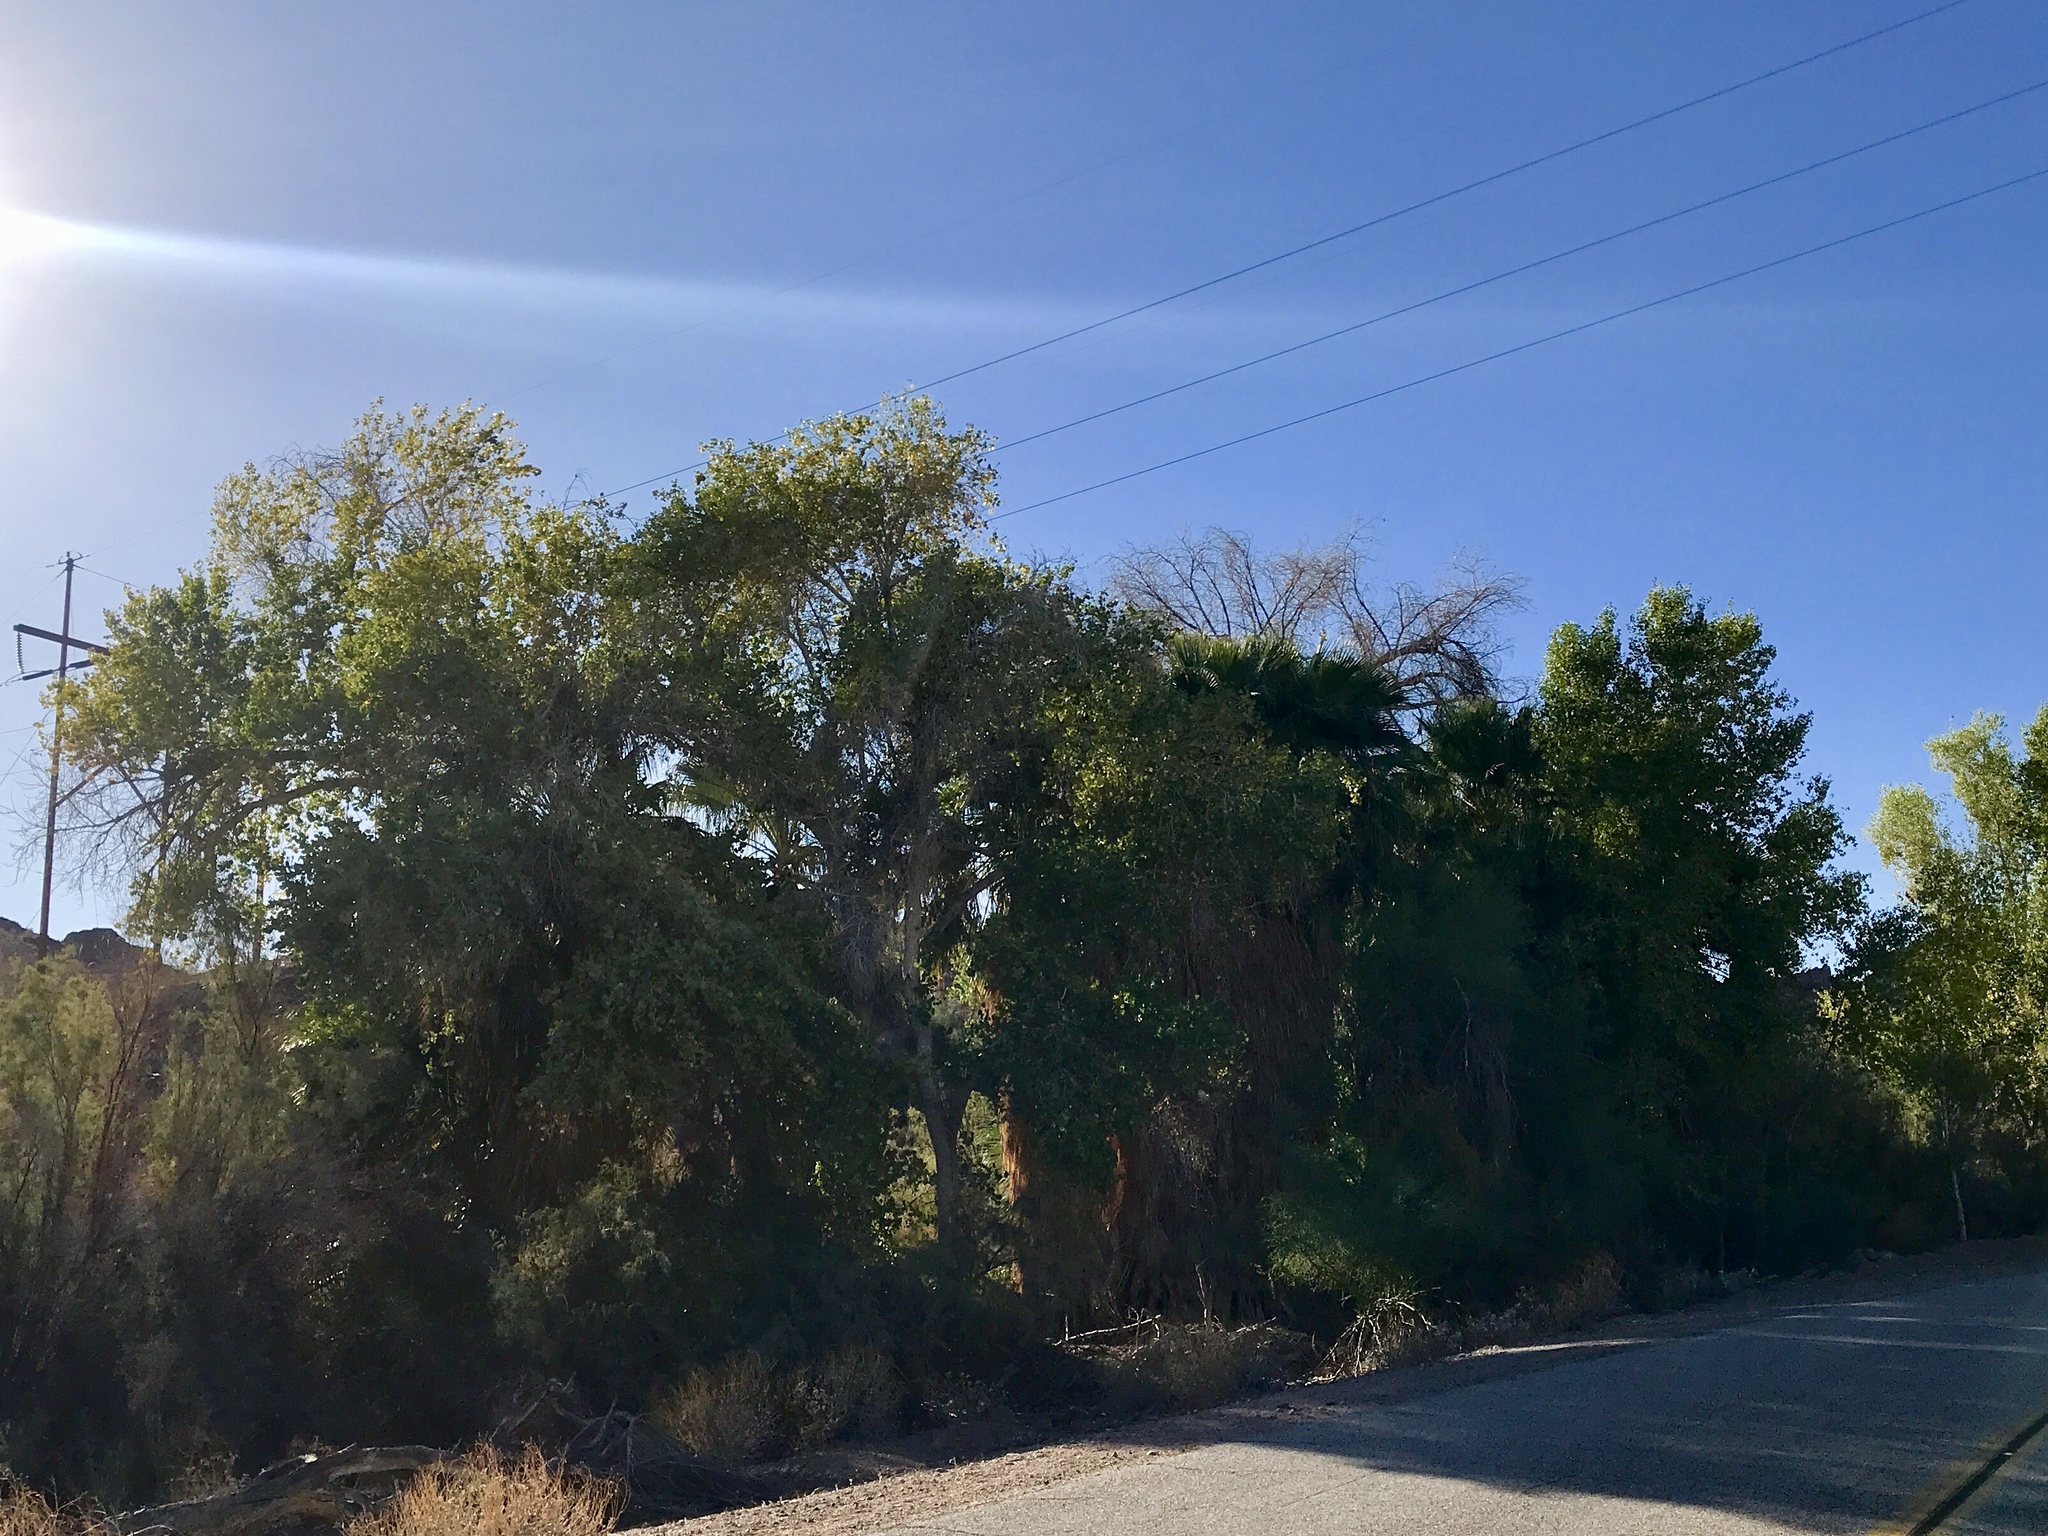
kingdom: Plantae
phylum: Tracheophyta
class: Magnoliopsida
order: Malpighiales
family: Salicaceae
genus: Populus
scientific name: Populus fremontii
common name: Fremont's cottonwood
